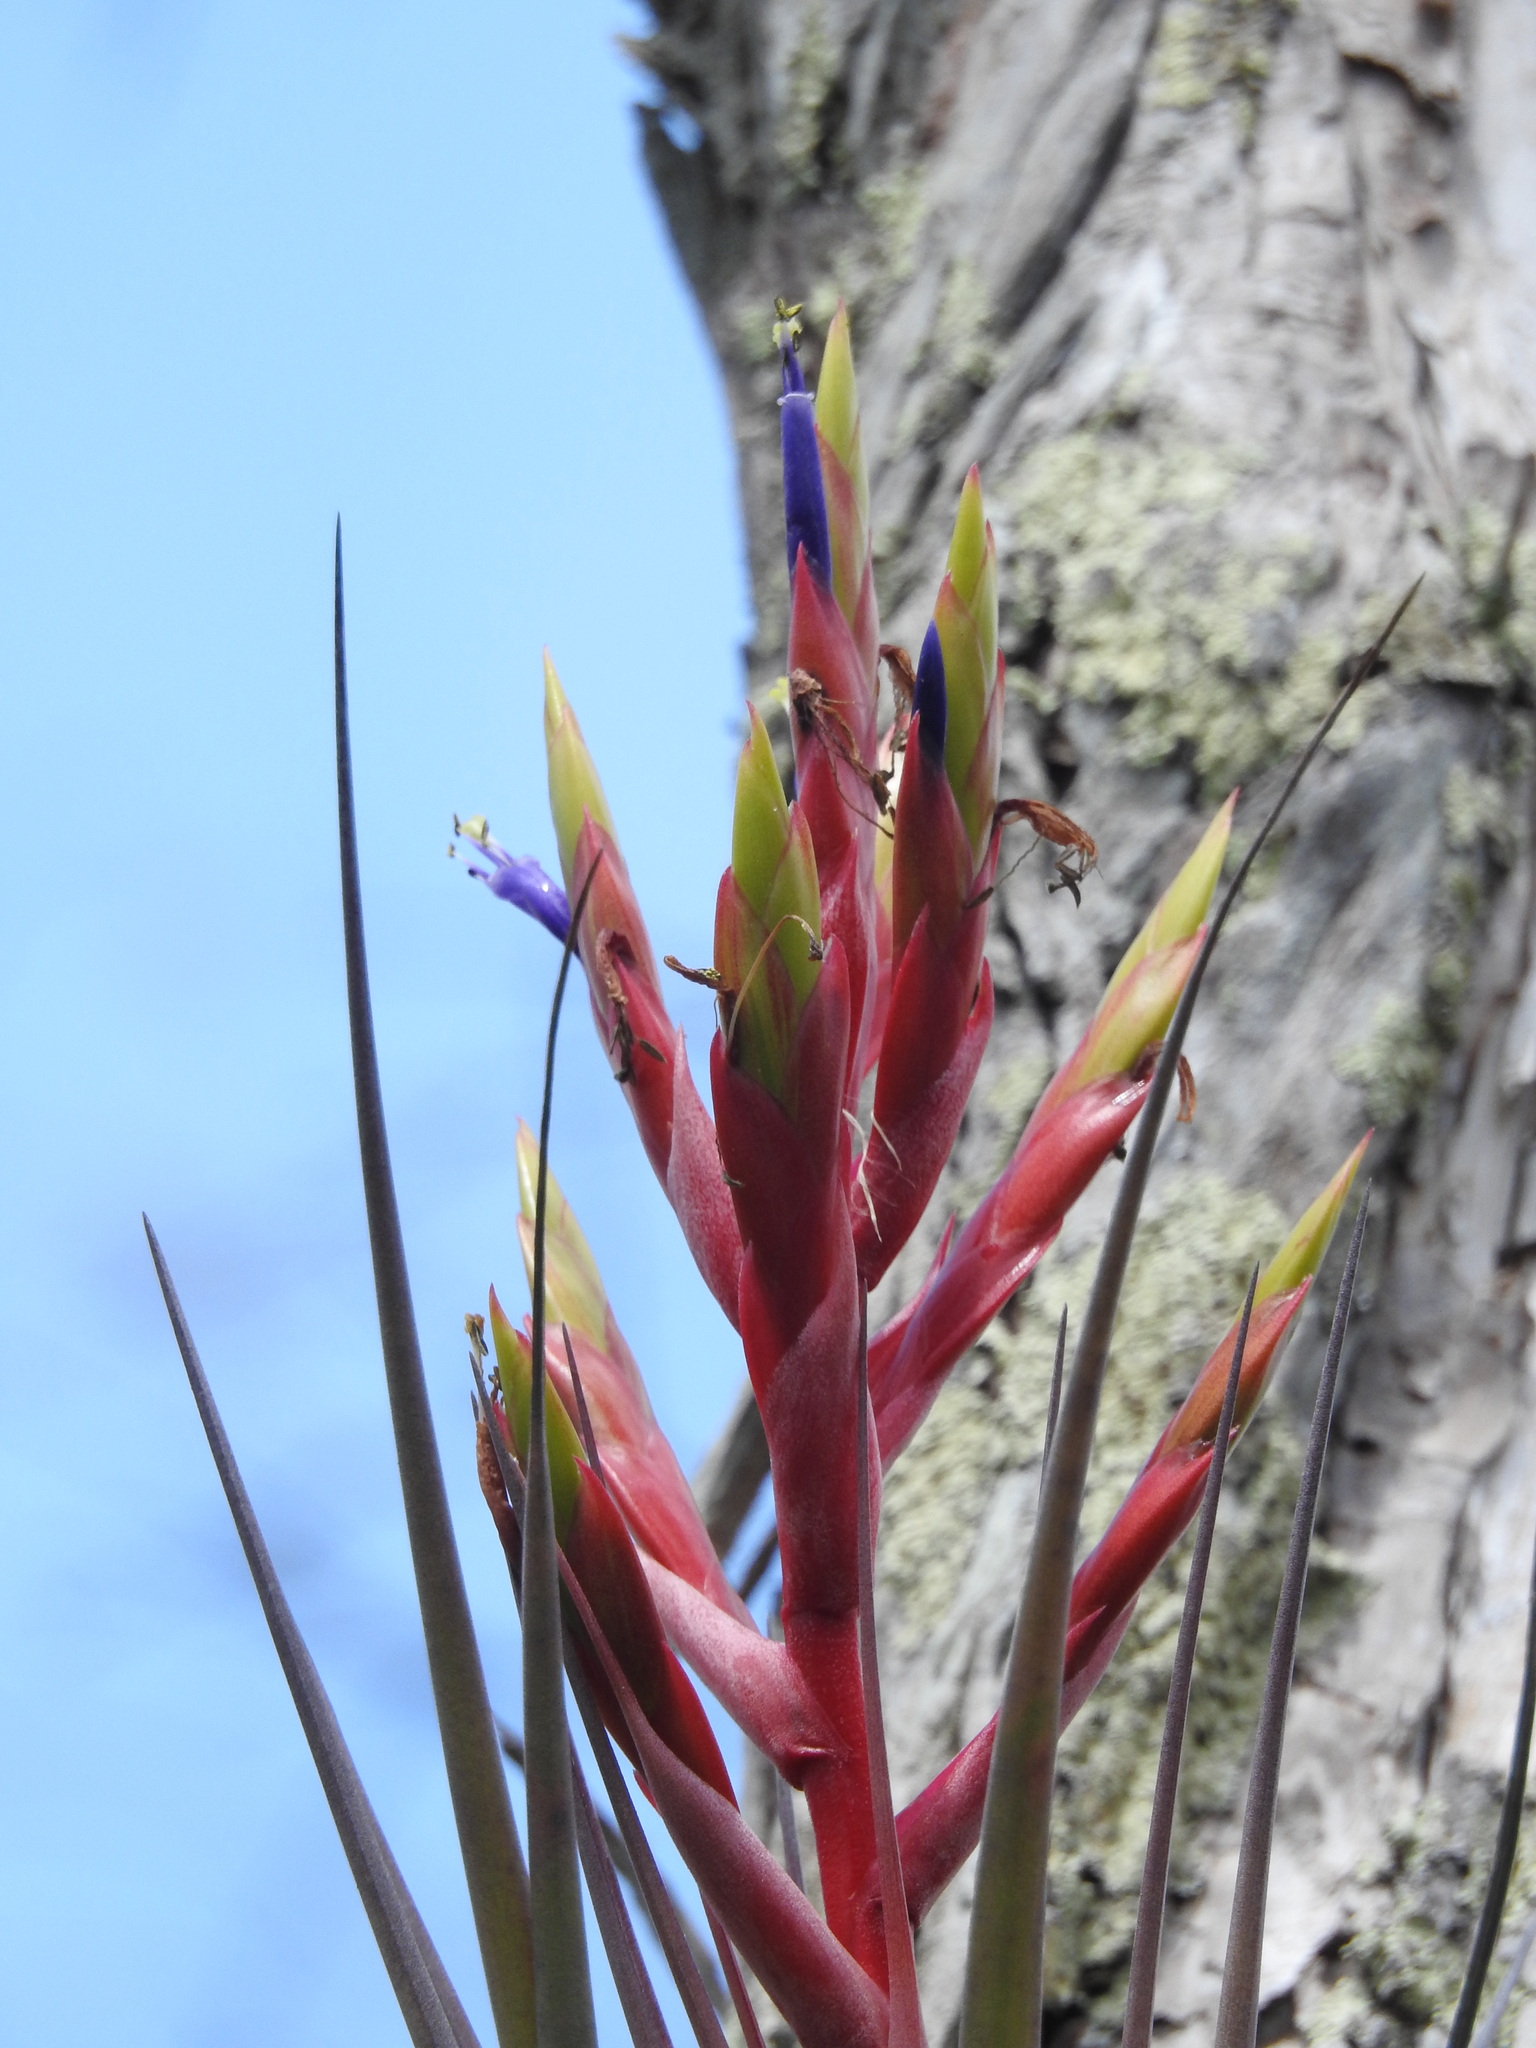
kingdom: Plantae
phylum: Tracheophyta
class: Liliopsida
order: Poales
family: Bromeliaceae
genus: Tillandsia
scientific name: Tillandsia fasciculata
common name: Giant airplant
